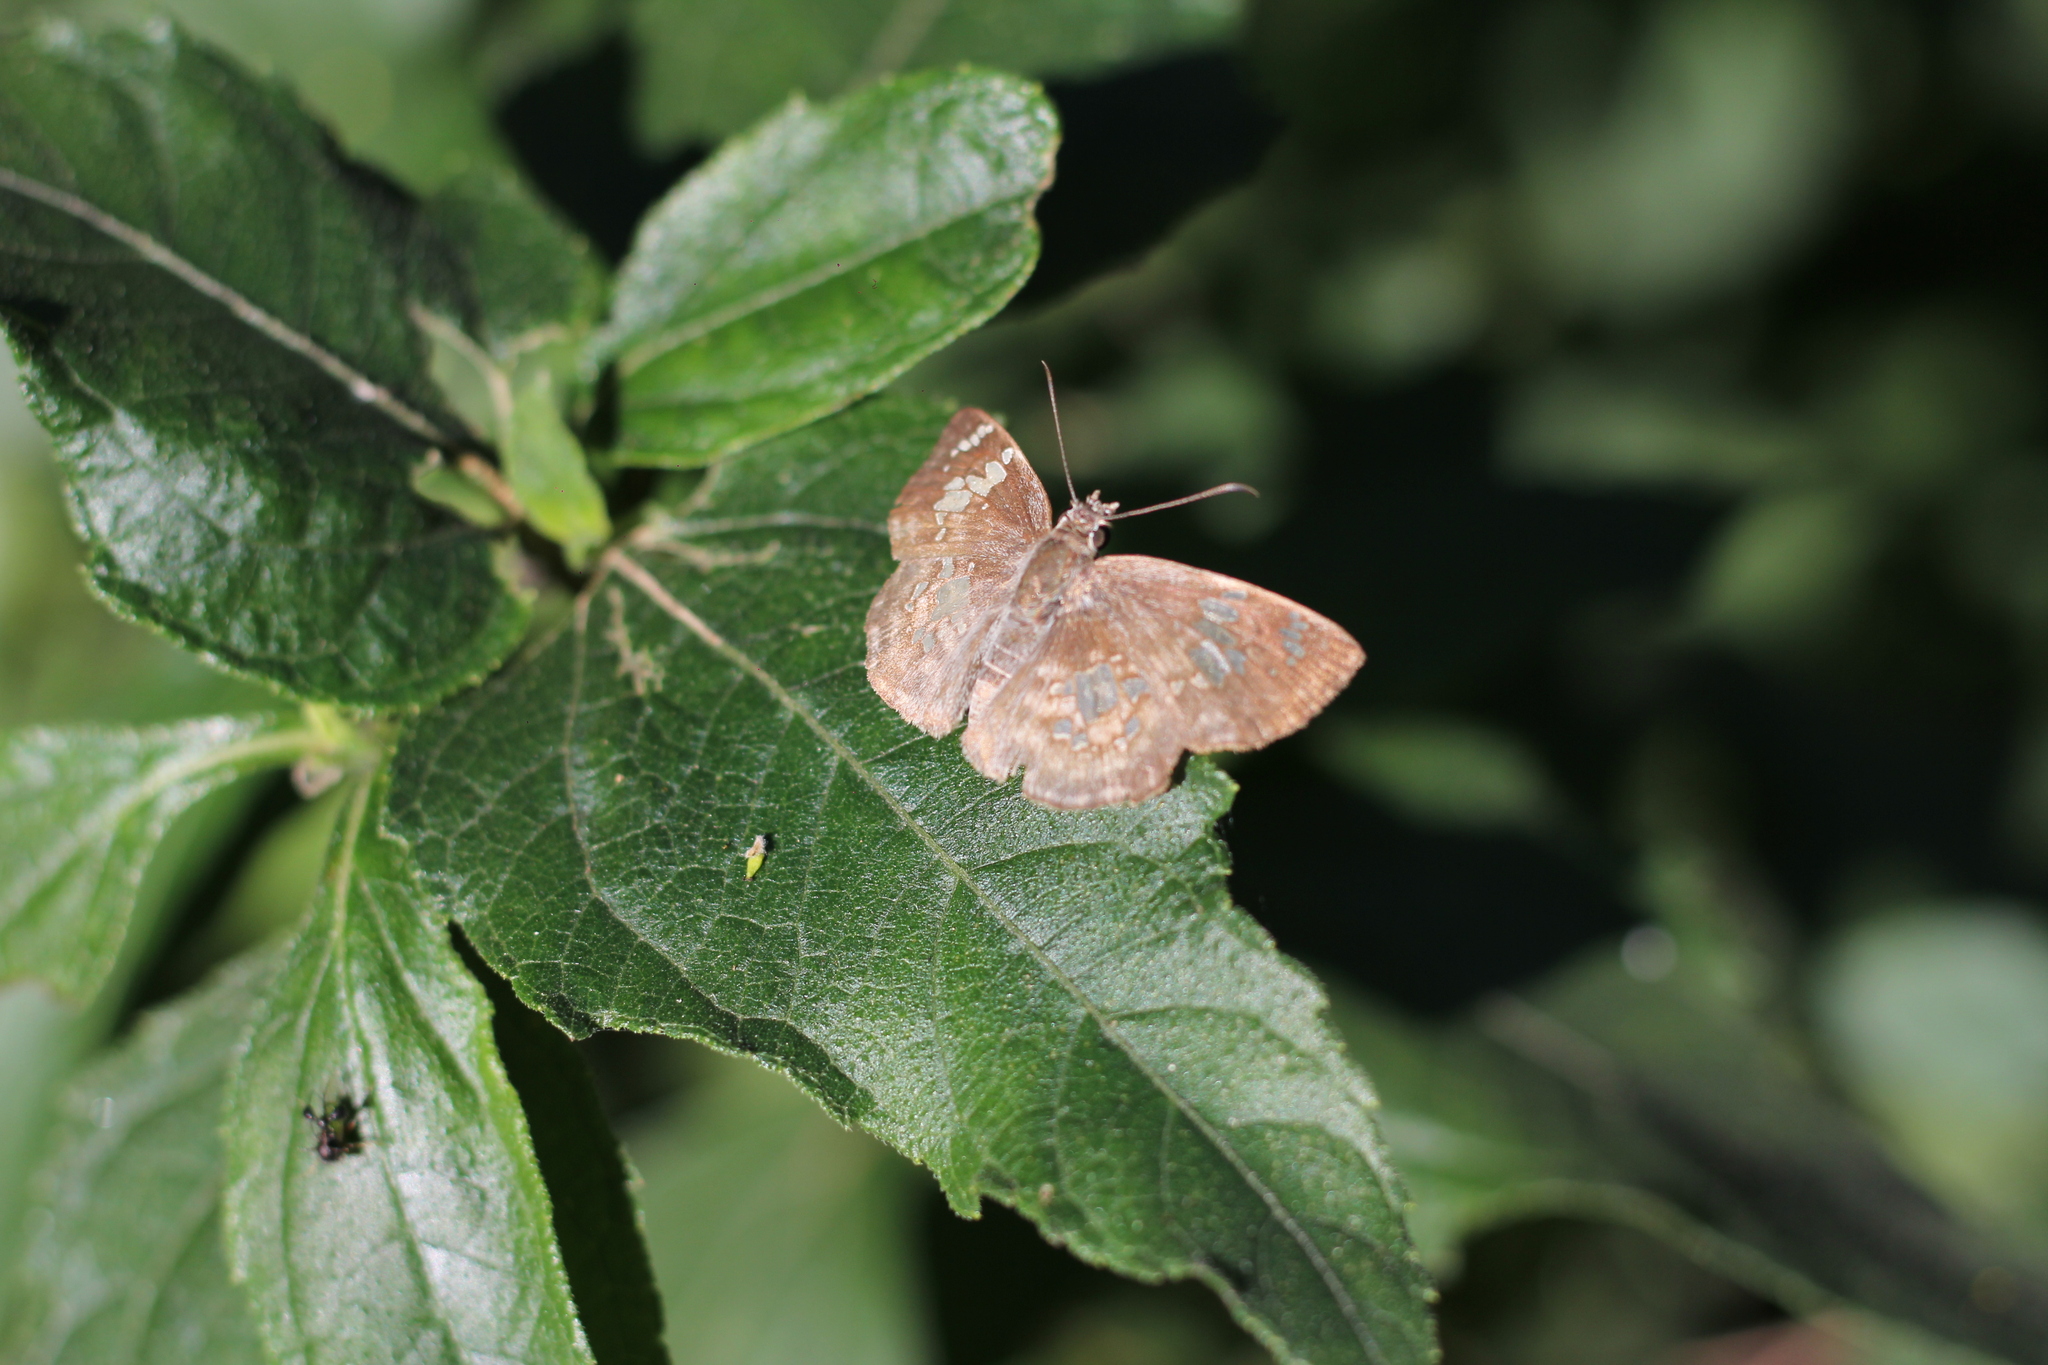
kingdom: Animalia
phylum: Arthropoda
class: Insecta
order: Lepidoptera
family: Hesperiidae
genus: Xenophanes
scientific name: Xenophanes tryxus
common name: Glassy-winged skipper
